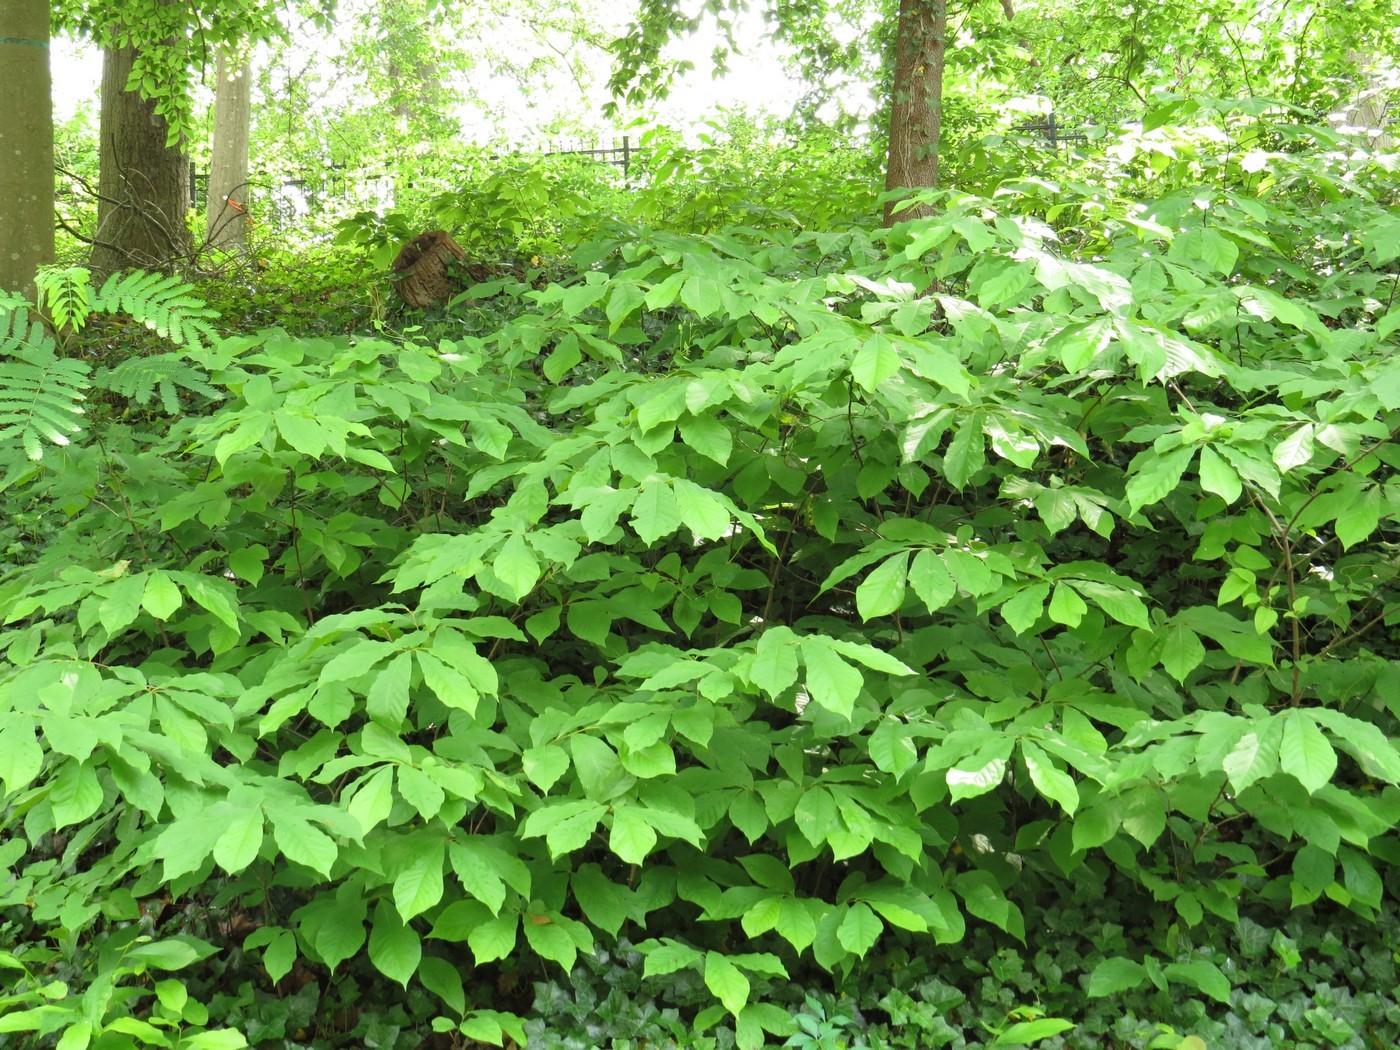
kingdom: Plantae
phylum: Tracheophyta
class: Magnoliopsida
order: Magnoliales
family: Annonaceae
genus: Asimina
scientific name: Asimina triloba
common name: Dog-banana
